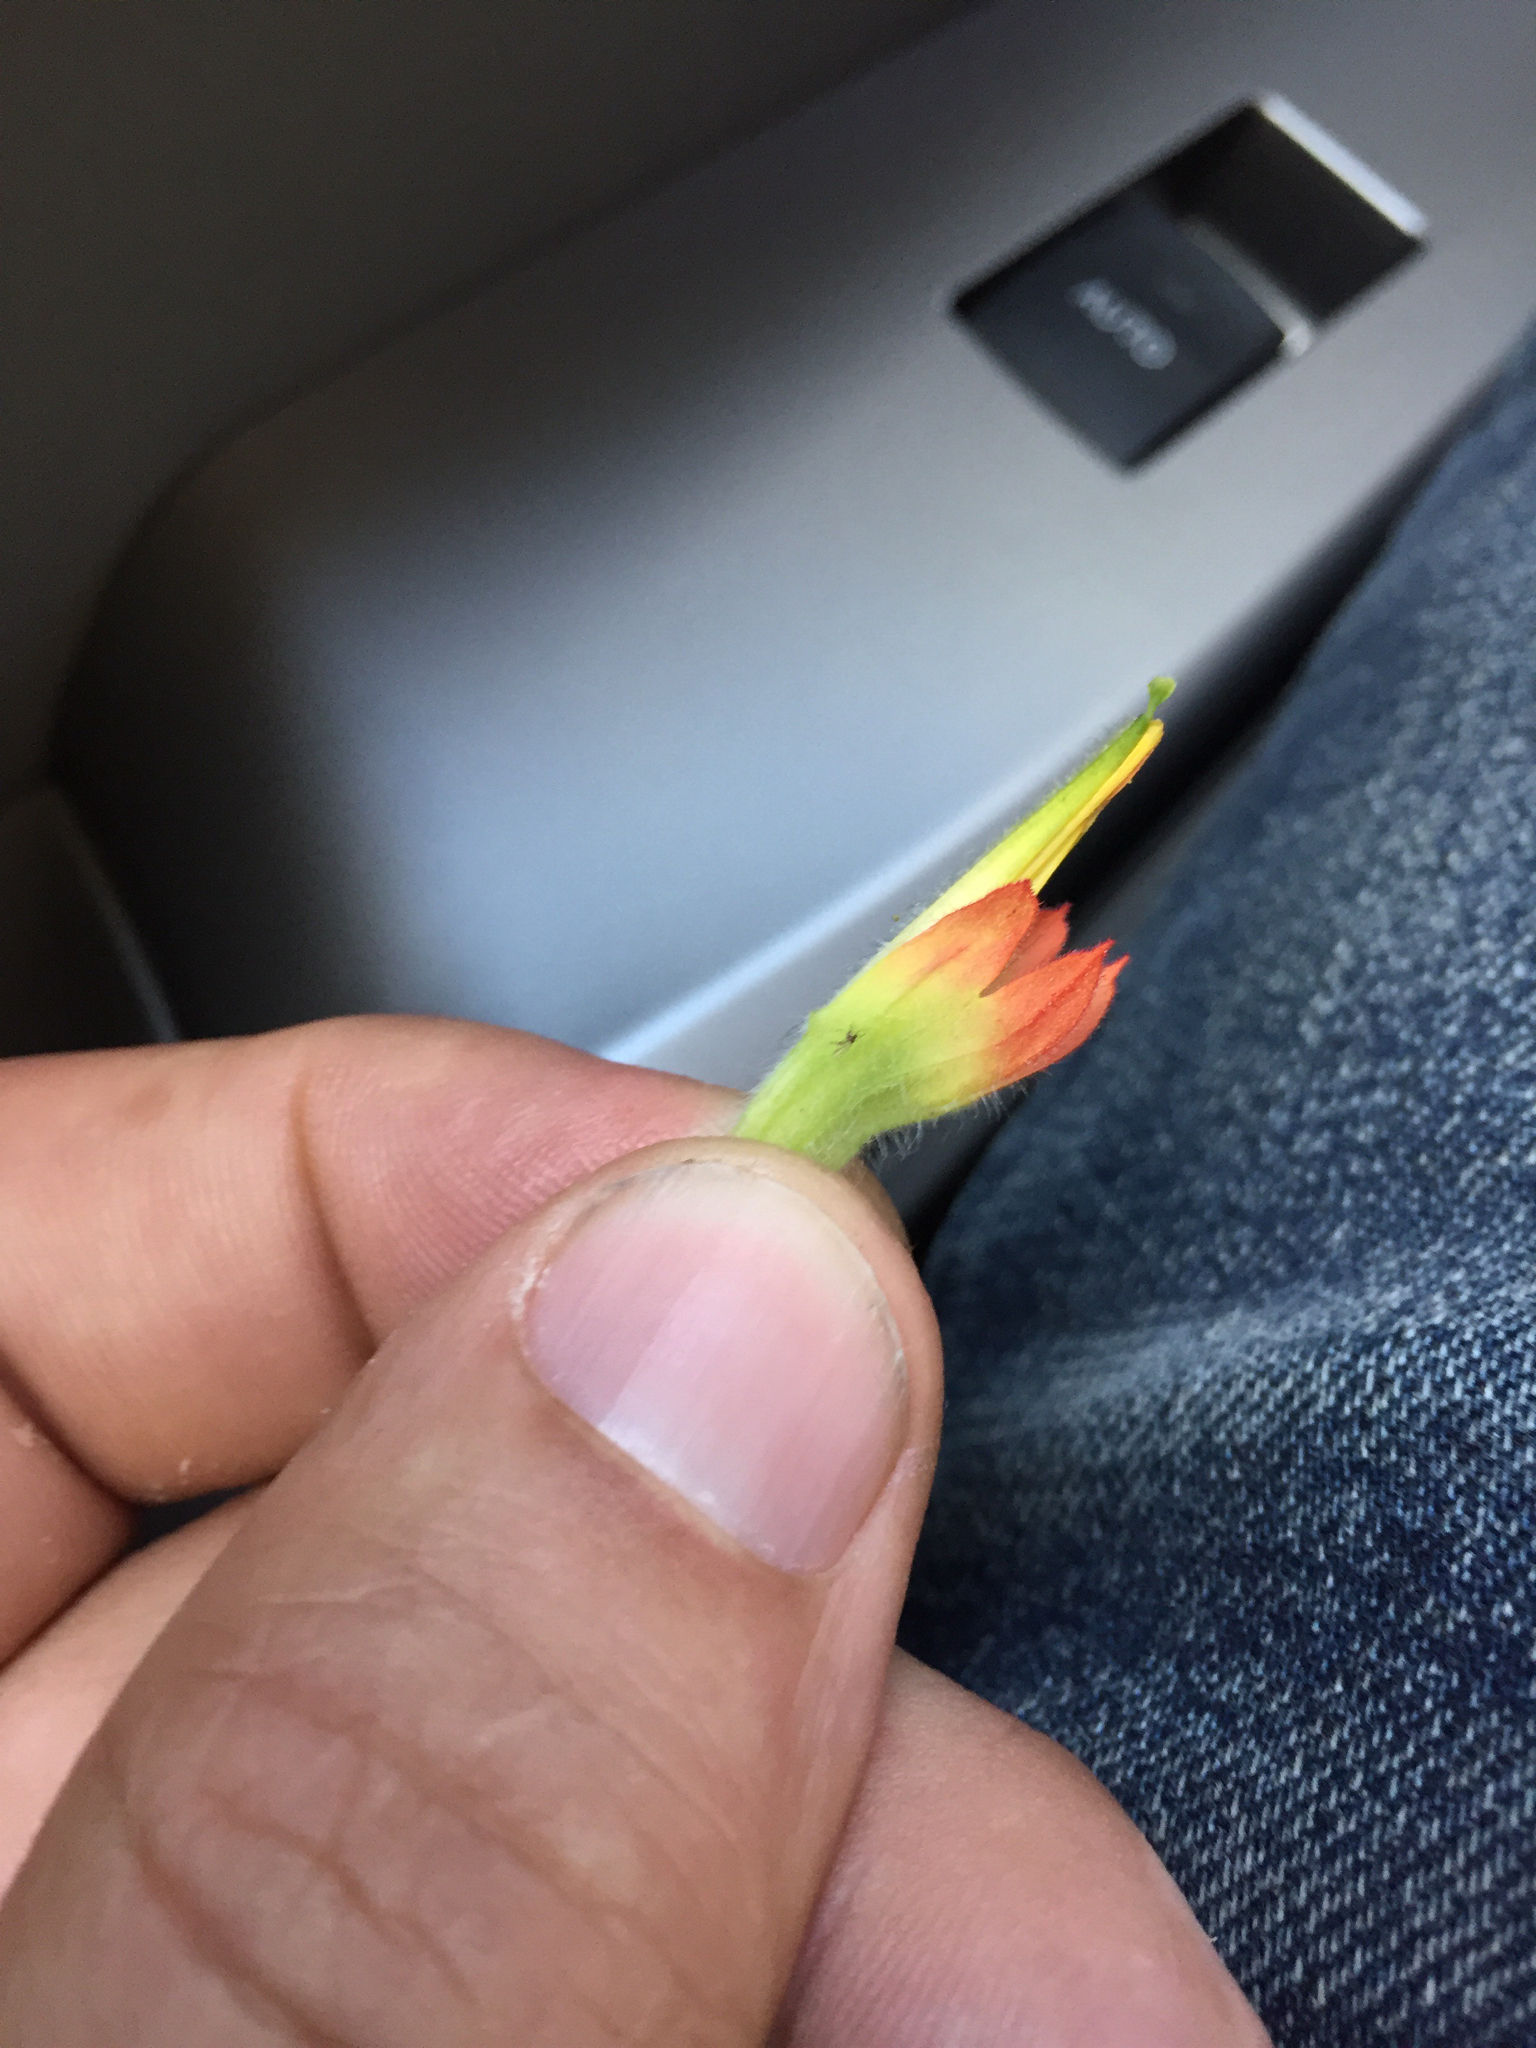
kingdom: Plantae
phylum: Tracheophyta
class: Magnoliopsida
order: Lamiales
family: Orobanchaceae
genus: Castilleja
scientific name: Castilleja affinis
